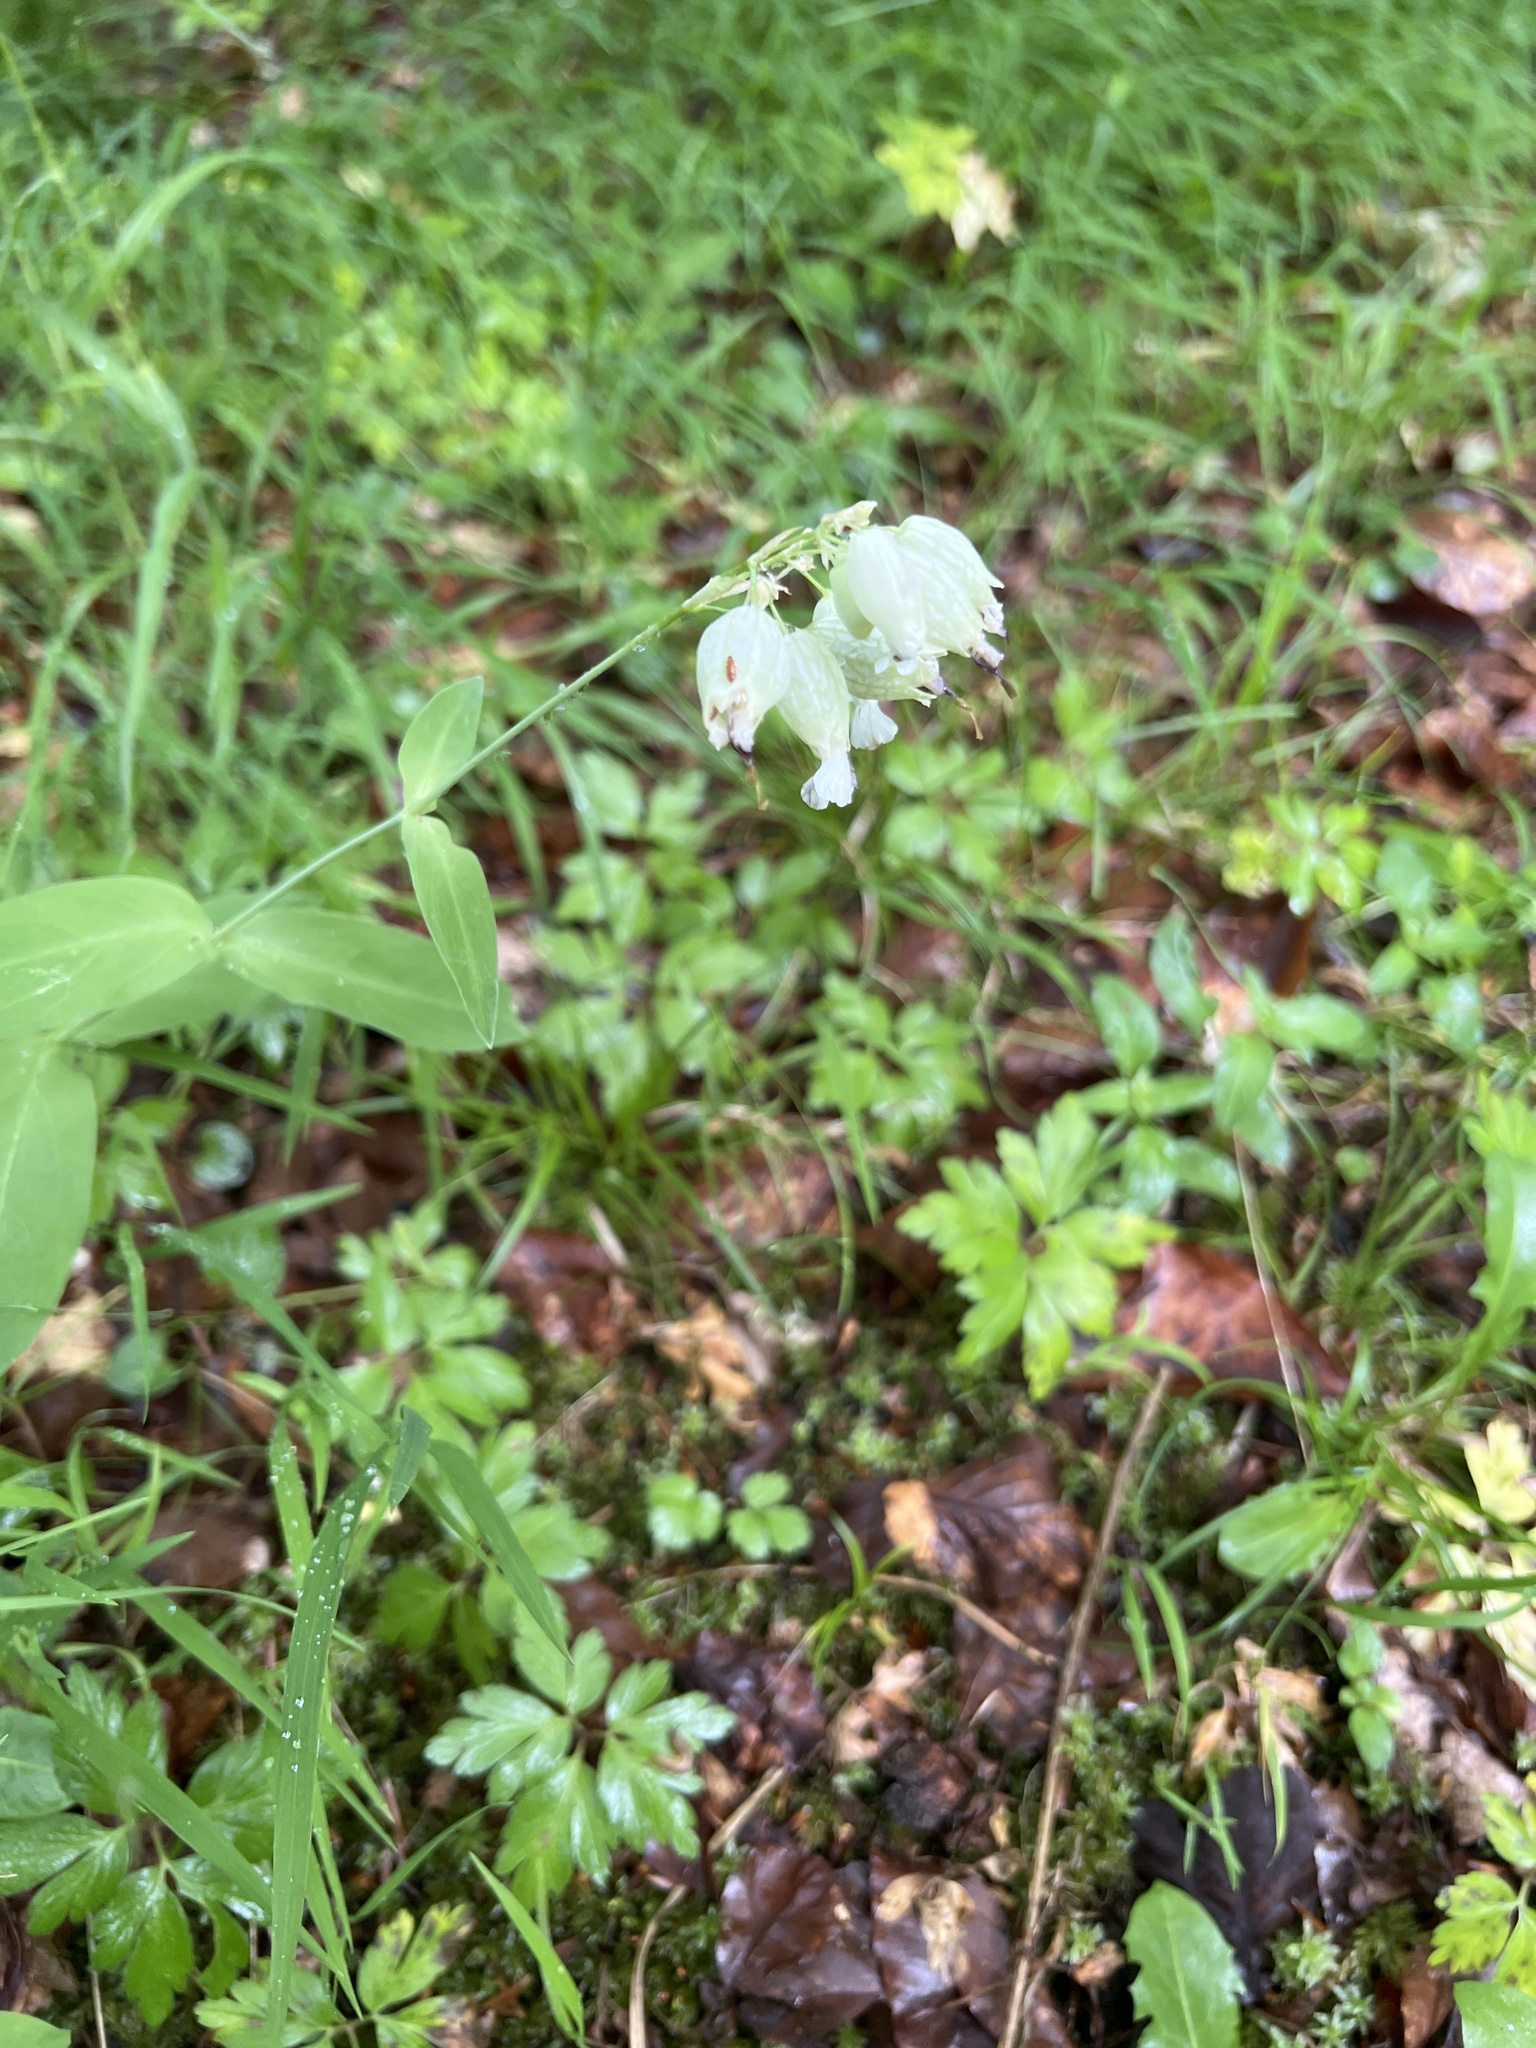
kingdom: Plantae
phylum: Tracheophyta
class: Magnoliopsida
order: Caryophyllales
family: Caryophyllaceae
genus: Silene
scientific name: Silene vulgaris
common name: Bladder campion
